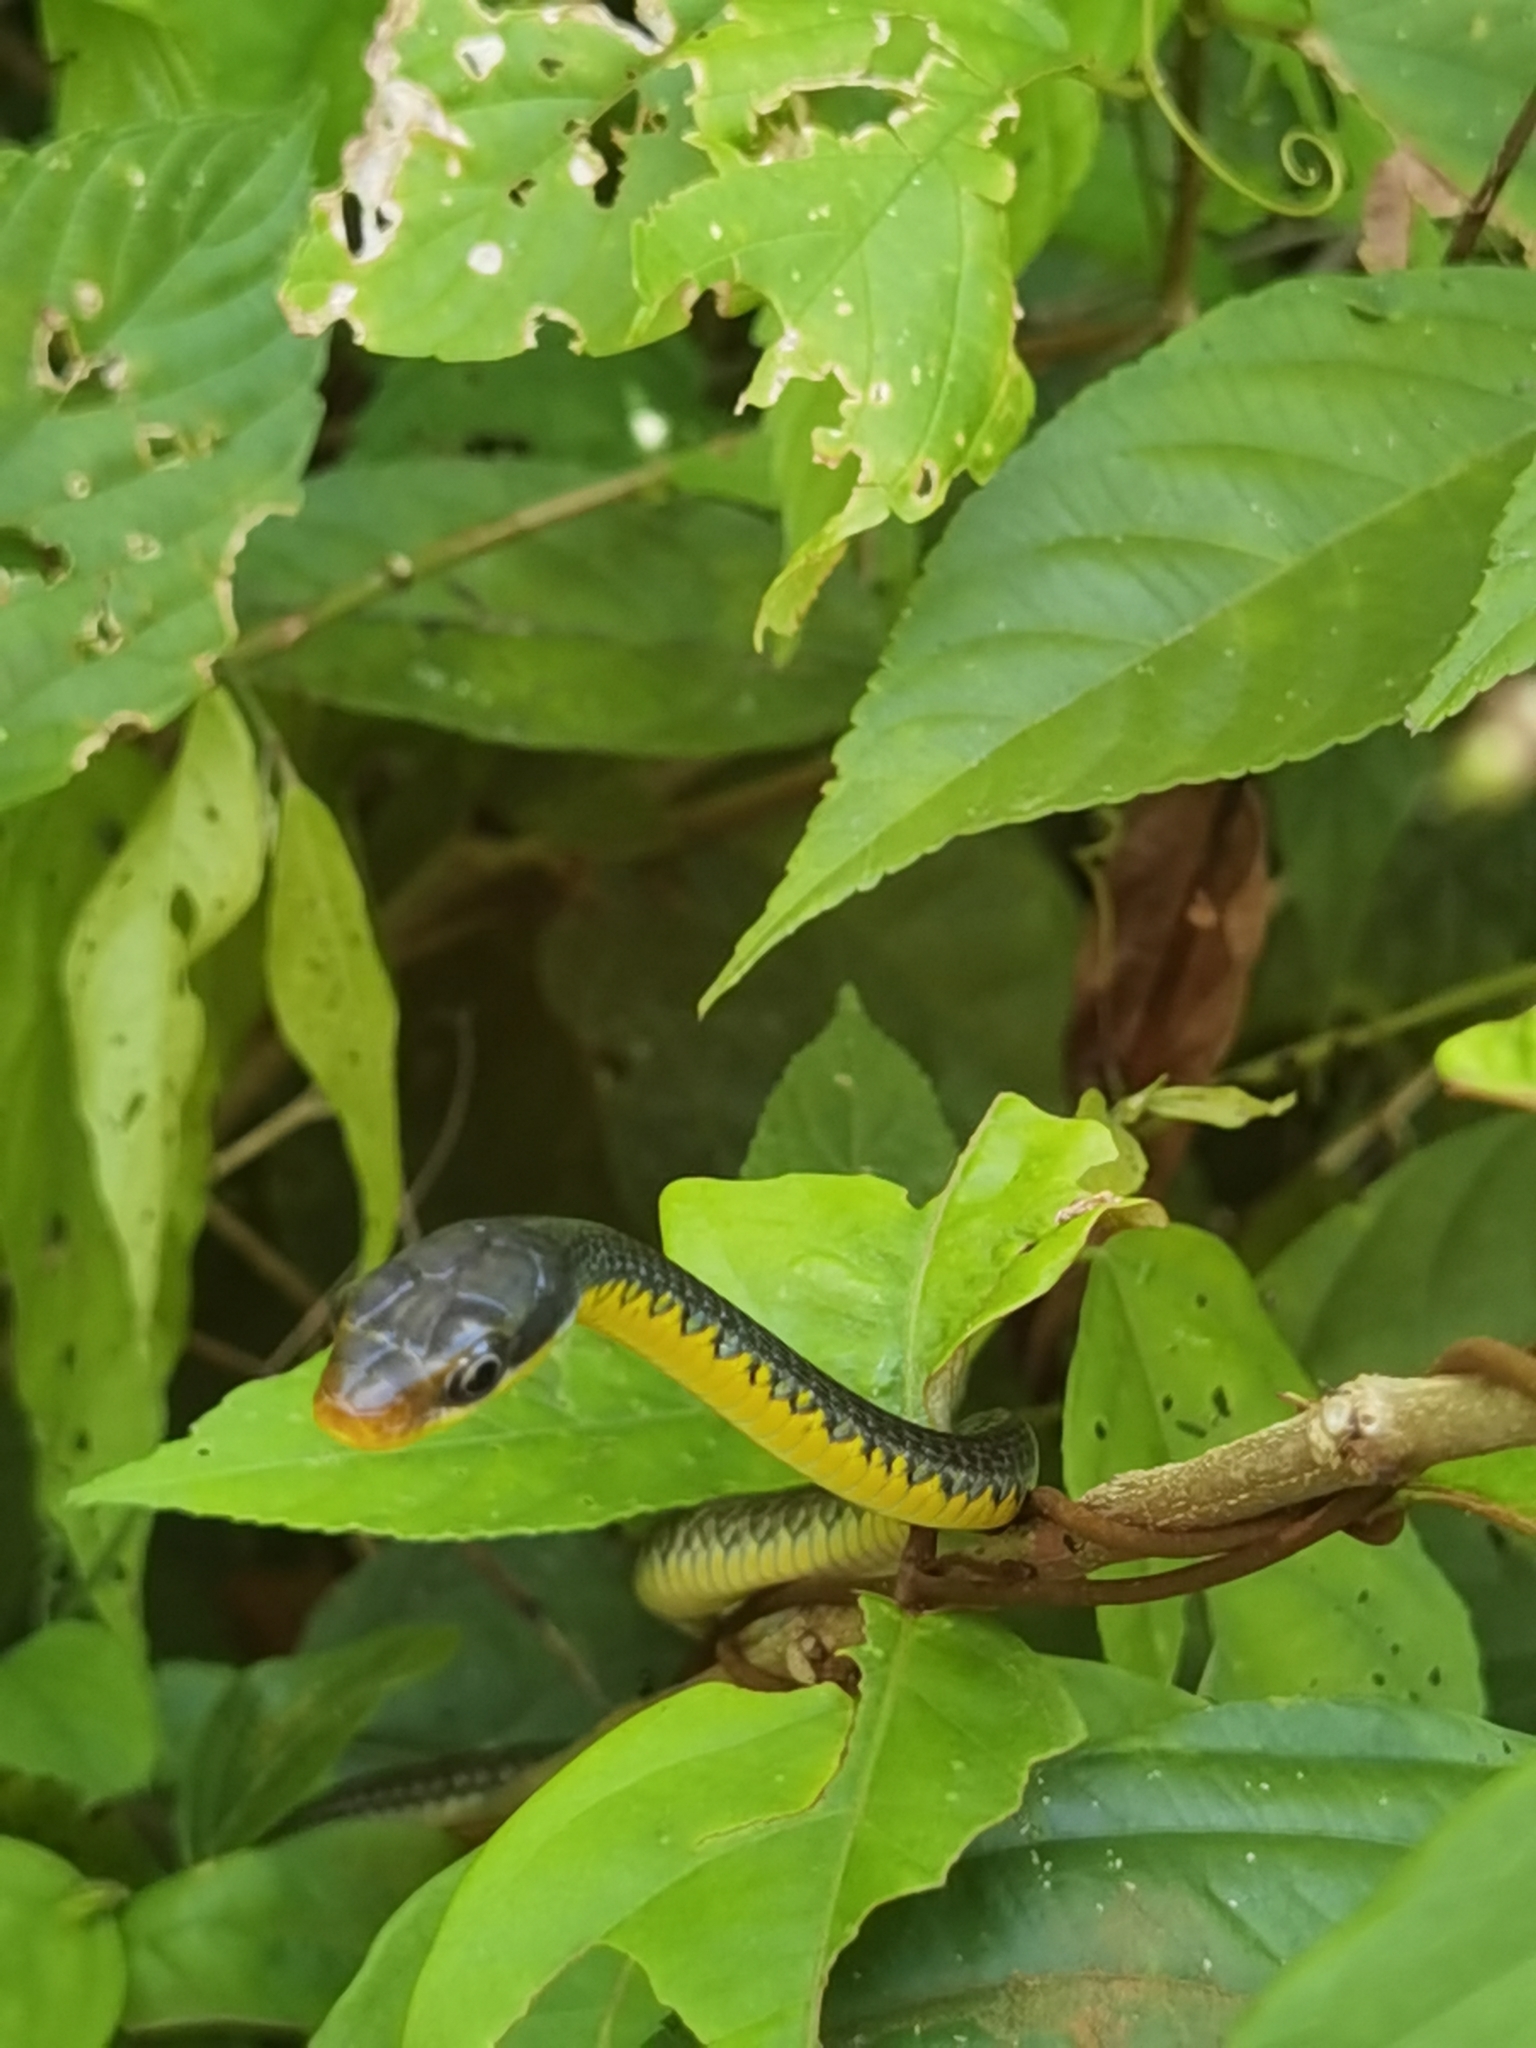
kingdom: Animalia
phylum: Chordata
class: Squamata
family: Colubridae
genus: Chironius
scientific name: Chironius flavopictus
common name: Sipo
